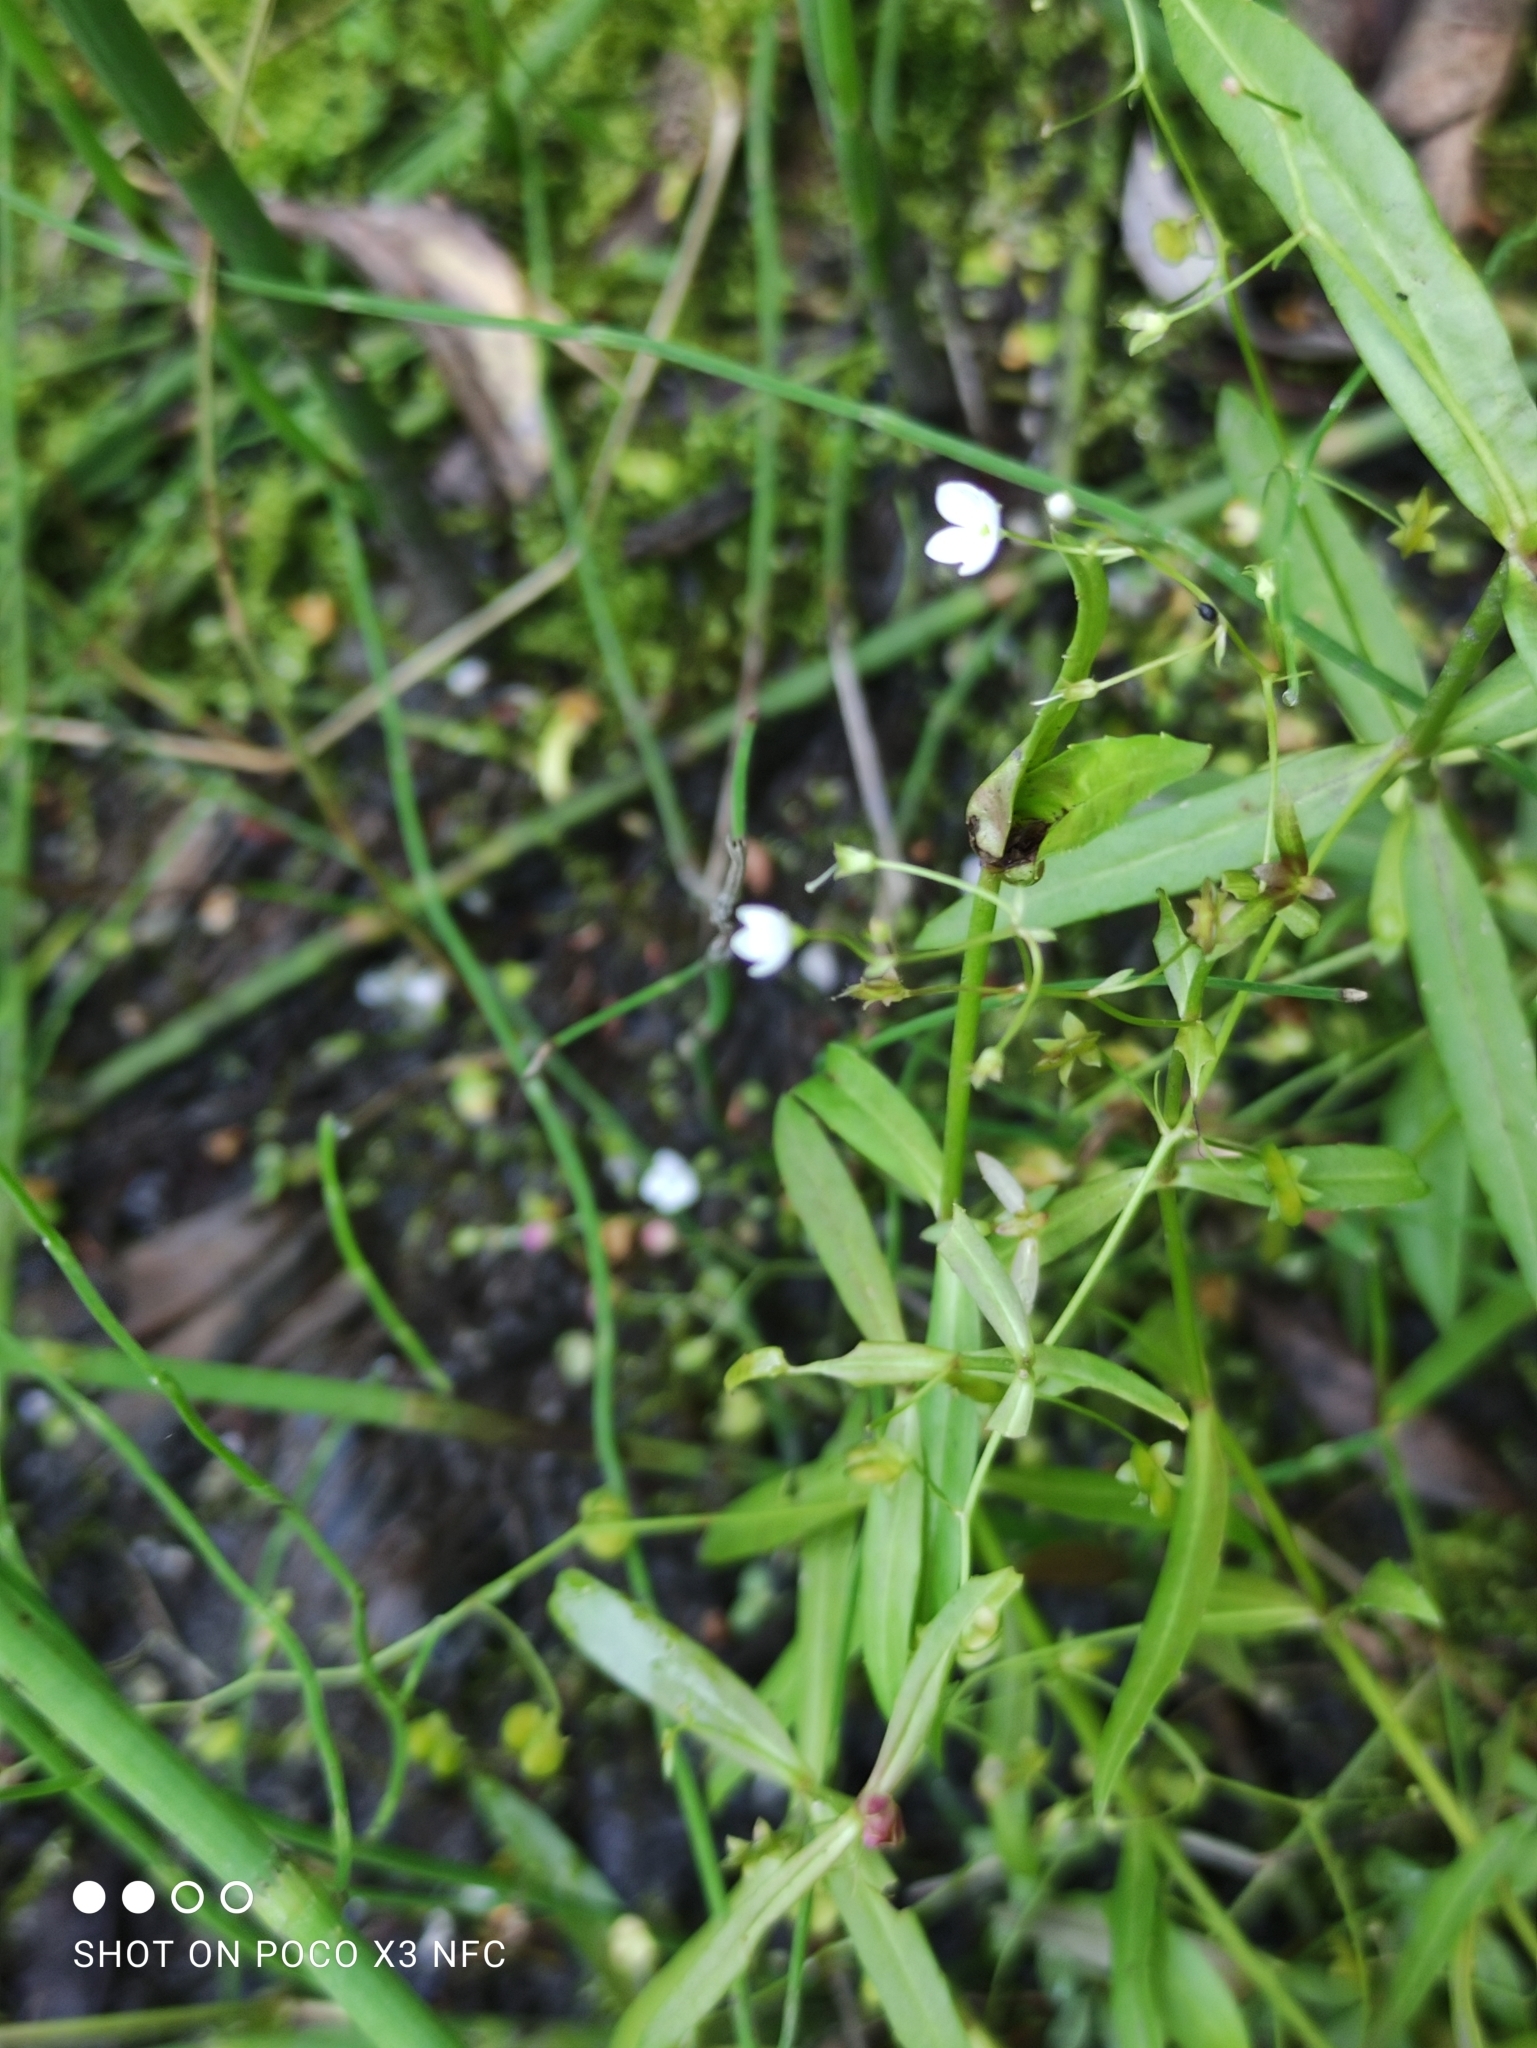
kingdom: Plantae
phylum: Tracheophyta
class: Magnoliopsida
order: Lamiales
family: Plantaginaceae
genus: Veronica
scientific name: Veronica scutellata
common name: Marsh speedwell
